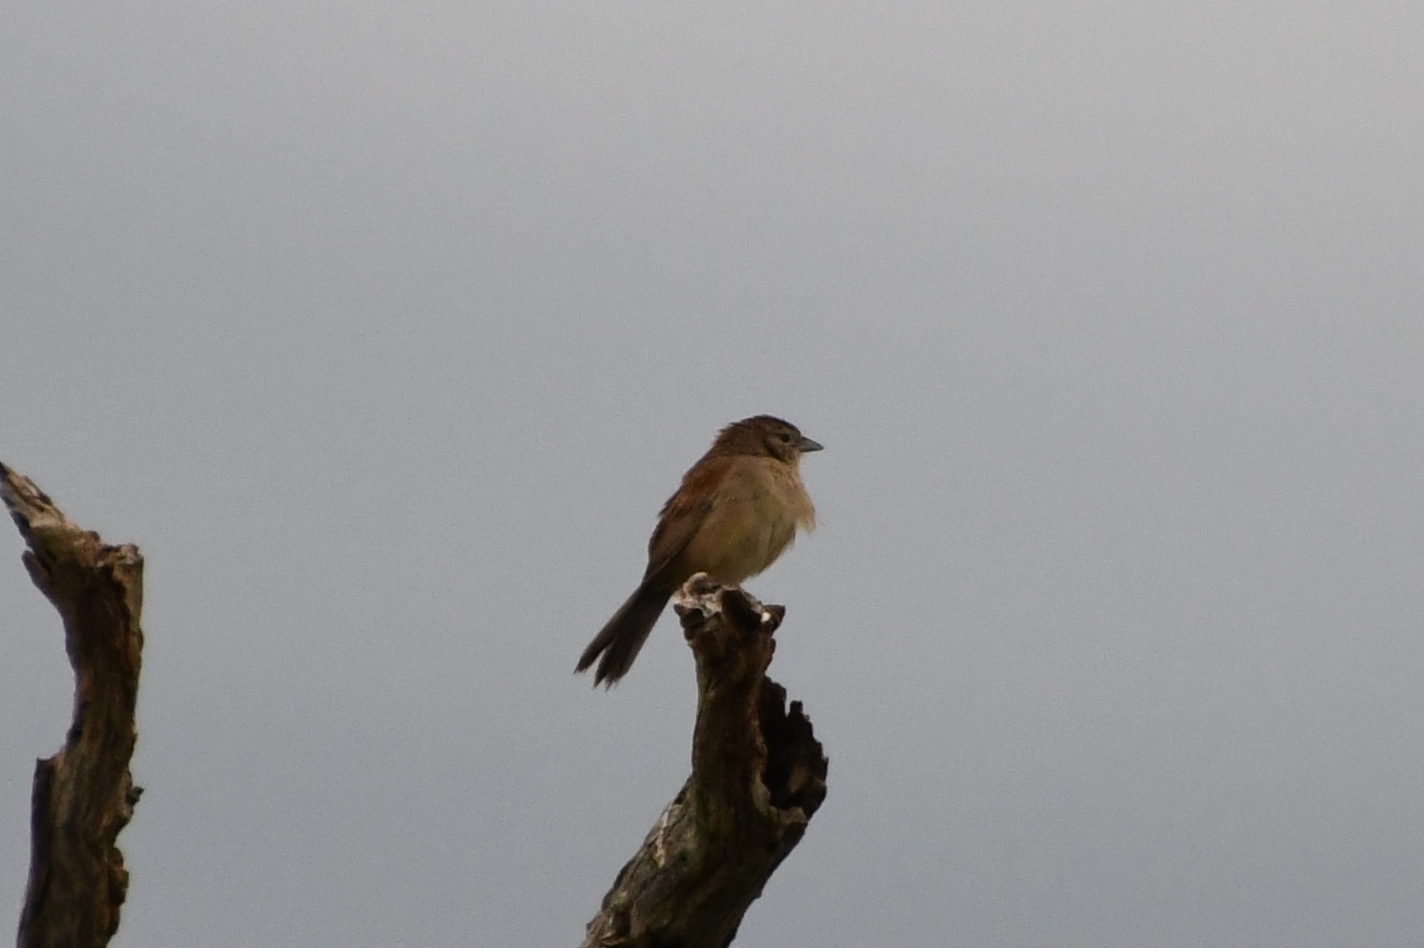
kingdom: Animalia
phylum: Chordata
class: Aves
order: Passeriformes
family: Passerellidae
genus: Peucaea
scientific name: Peucaea botterii
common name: Botteri's sparrow
